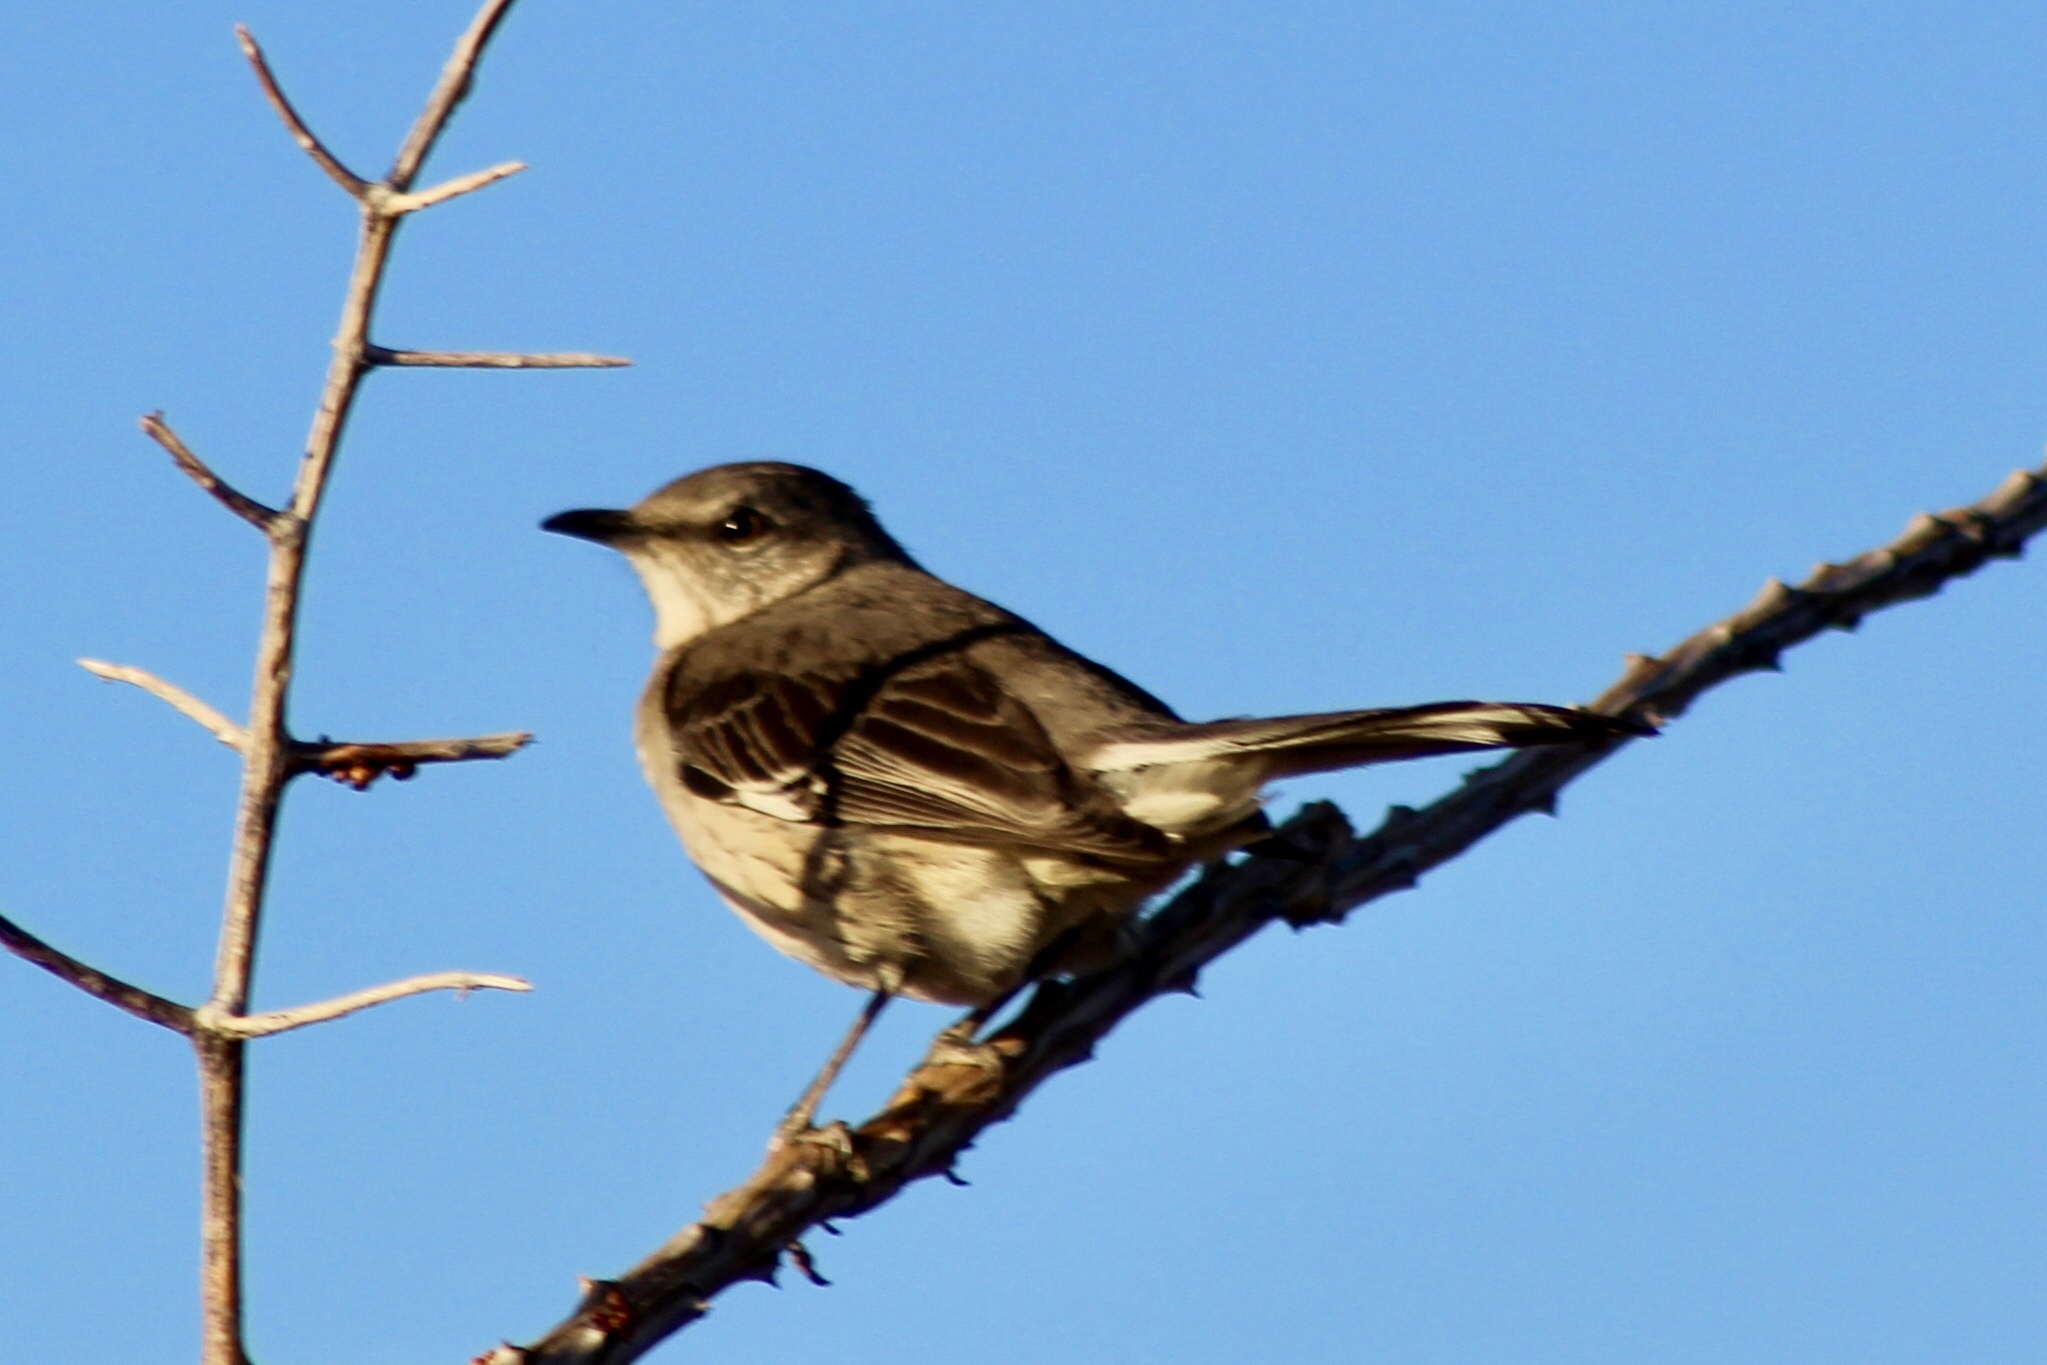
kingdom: Animalia
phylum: Chordata
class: Aves
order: Passeriformes
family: Mimidae
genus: Mimus
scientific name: Mimus polyglottos
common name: Northern mockingbird
